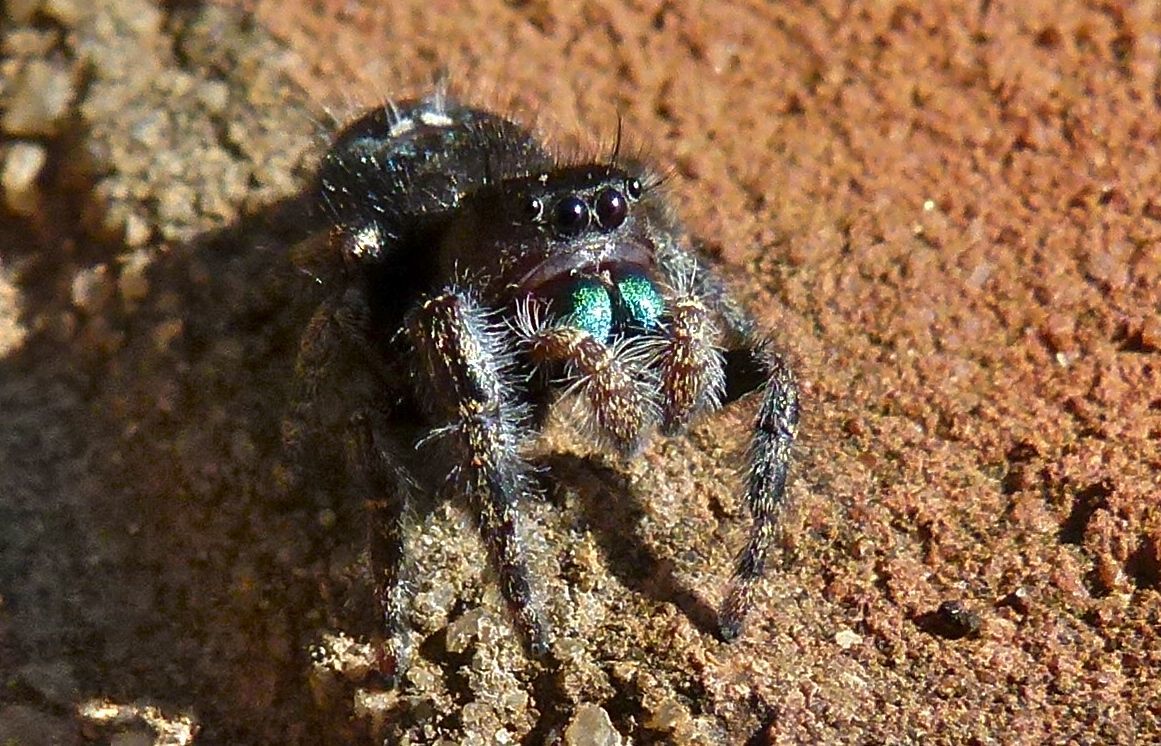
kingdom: Animalia
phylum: Arthropoda
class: Arachnida
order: Araneae
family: Salticidae
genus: Phidippus
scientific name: Phidippus audax
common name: Bold jumper
